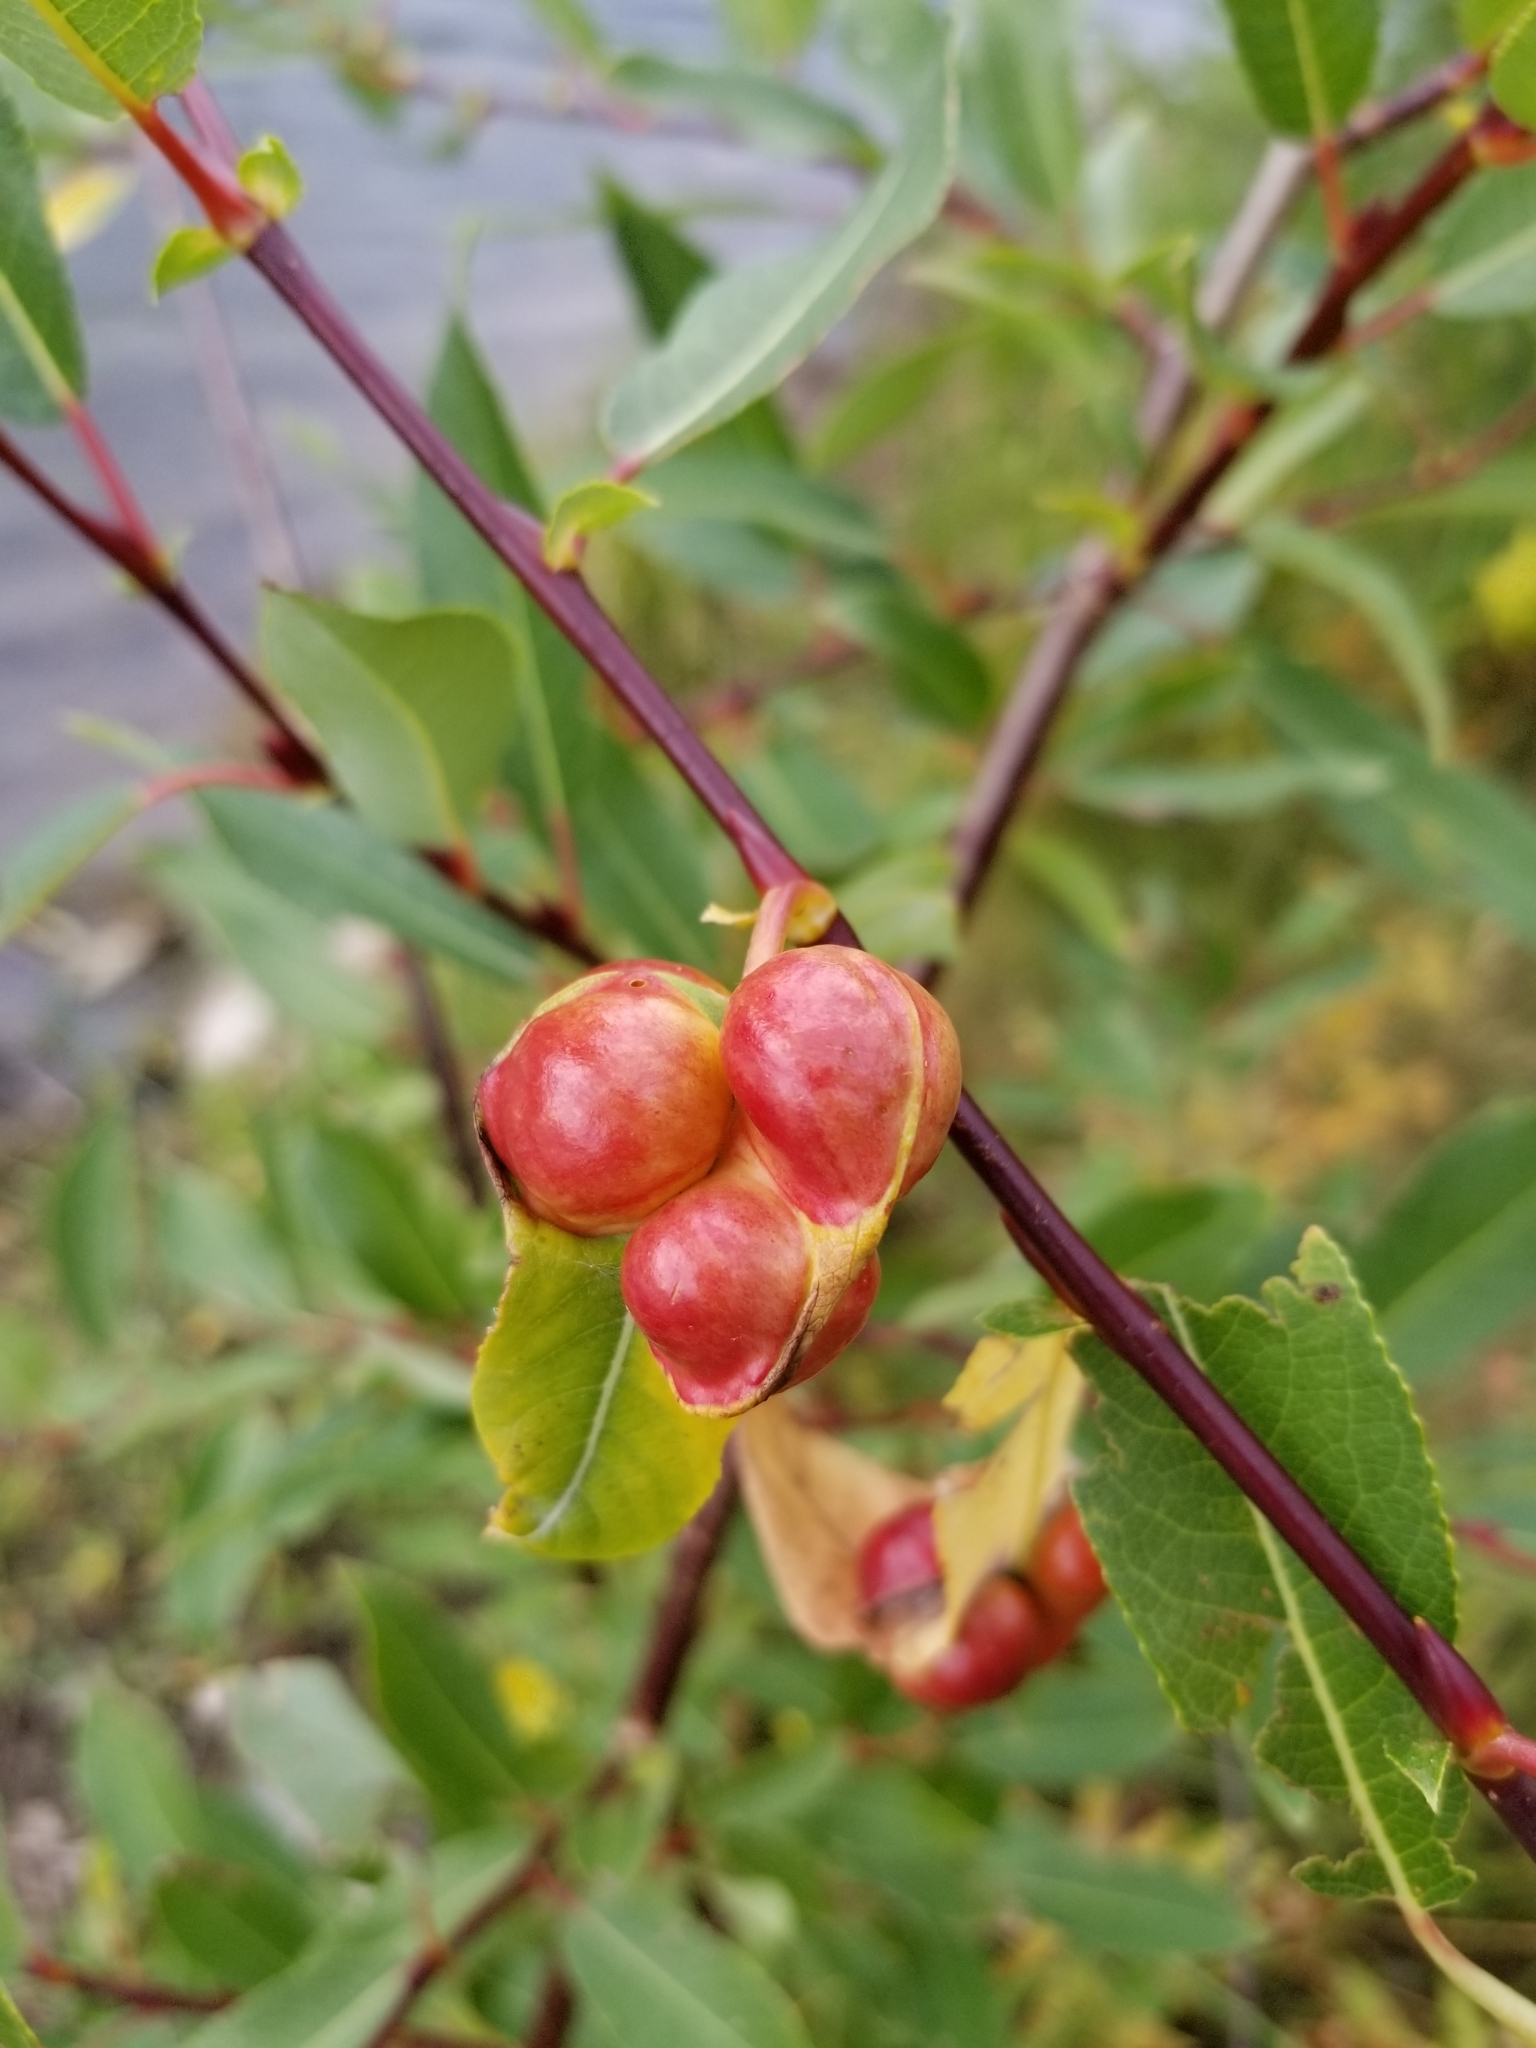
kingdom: Animalia
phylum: Arthropoda
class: Insecta
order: Hymenoptera
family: Tenthredinidae
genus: Euura
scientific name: Euura
